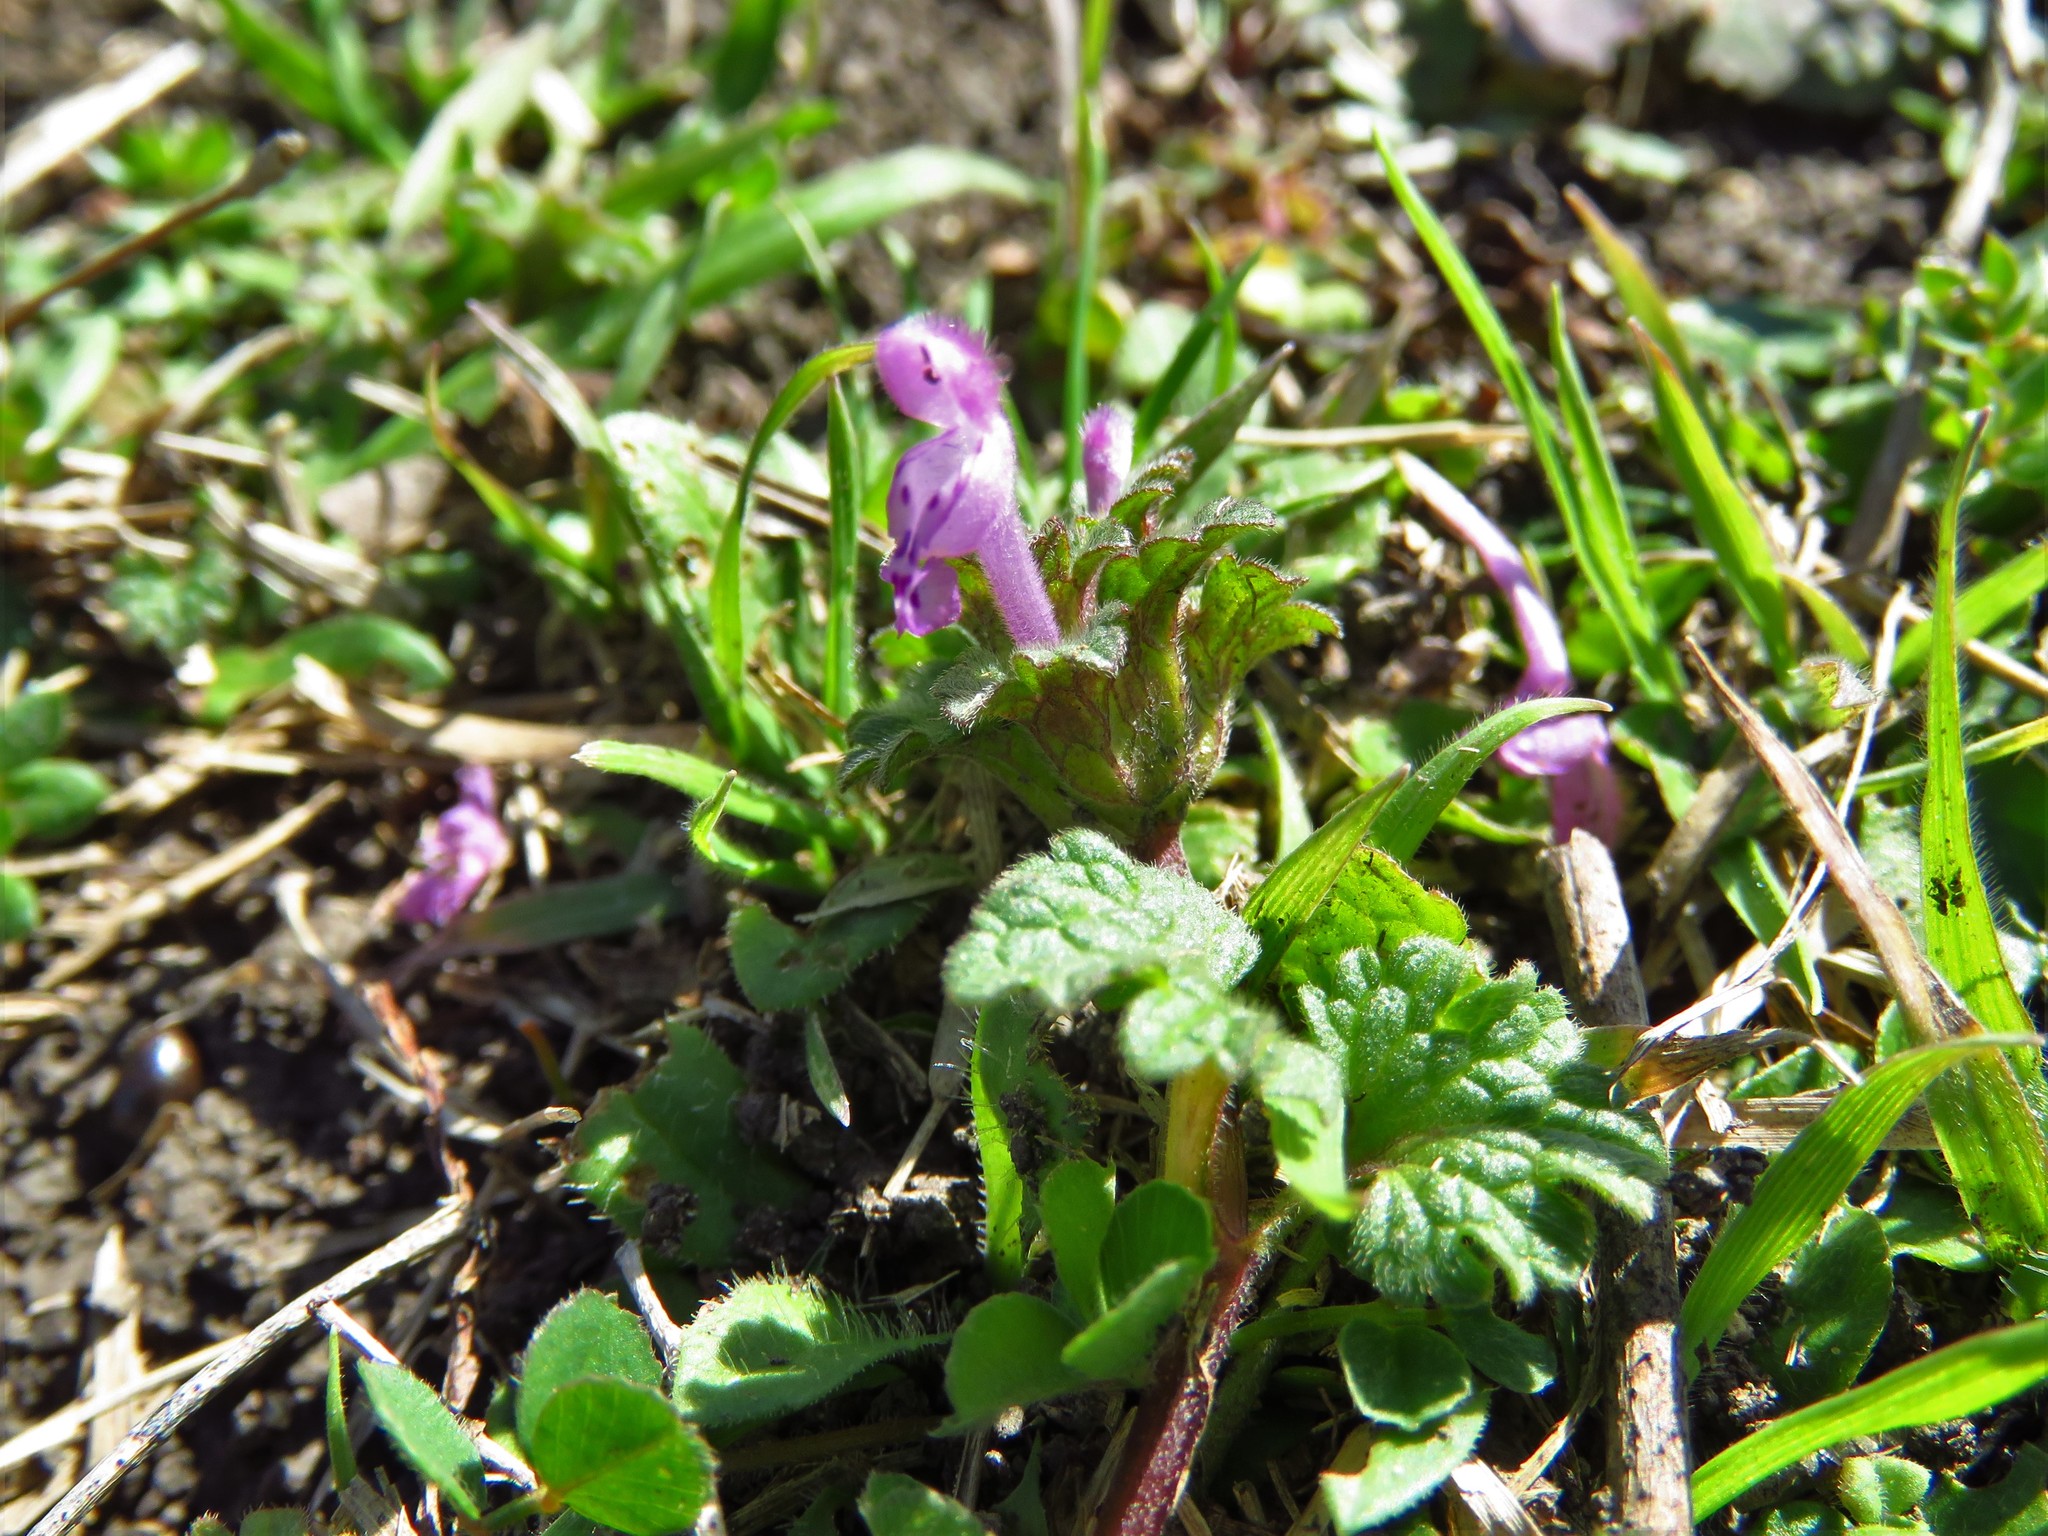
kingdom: Plantae
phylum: Tracheophyta
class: Magnoliopsida
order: Lamiales
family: Lamiaceae
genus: Lamium
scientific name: Lamium amplexicaule
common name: Henbit dead-nettle
